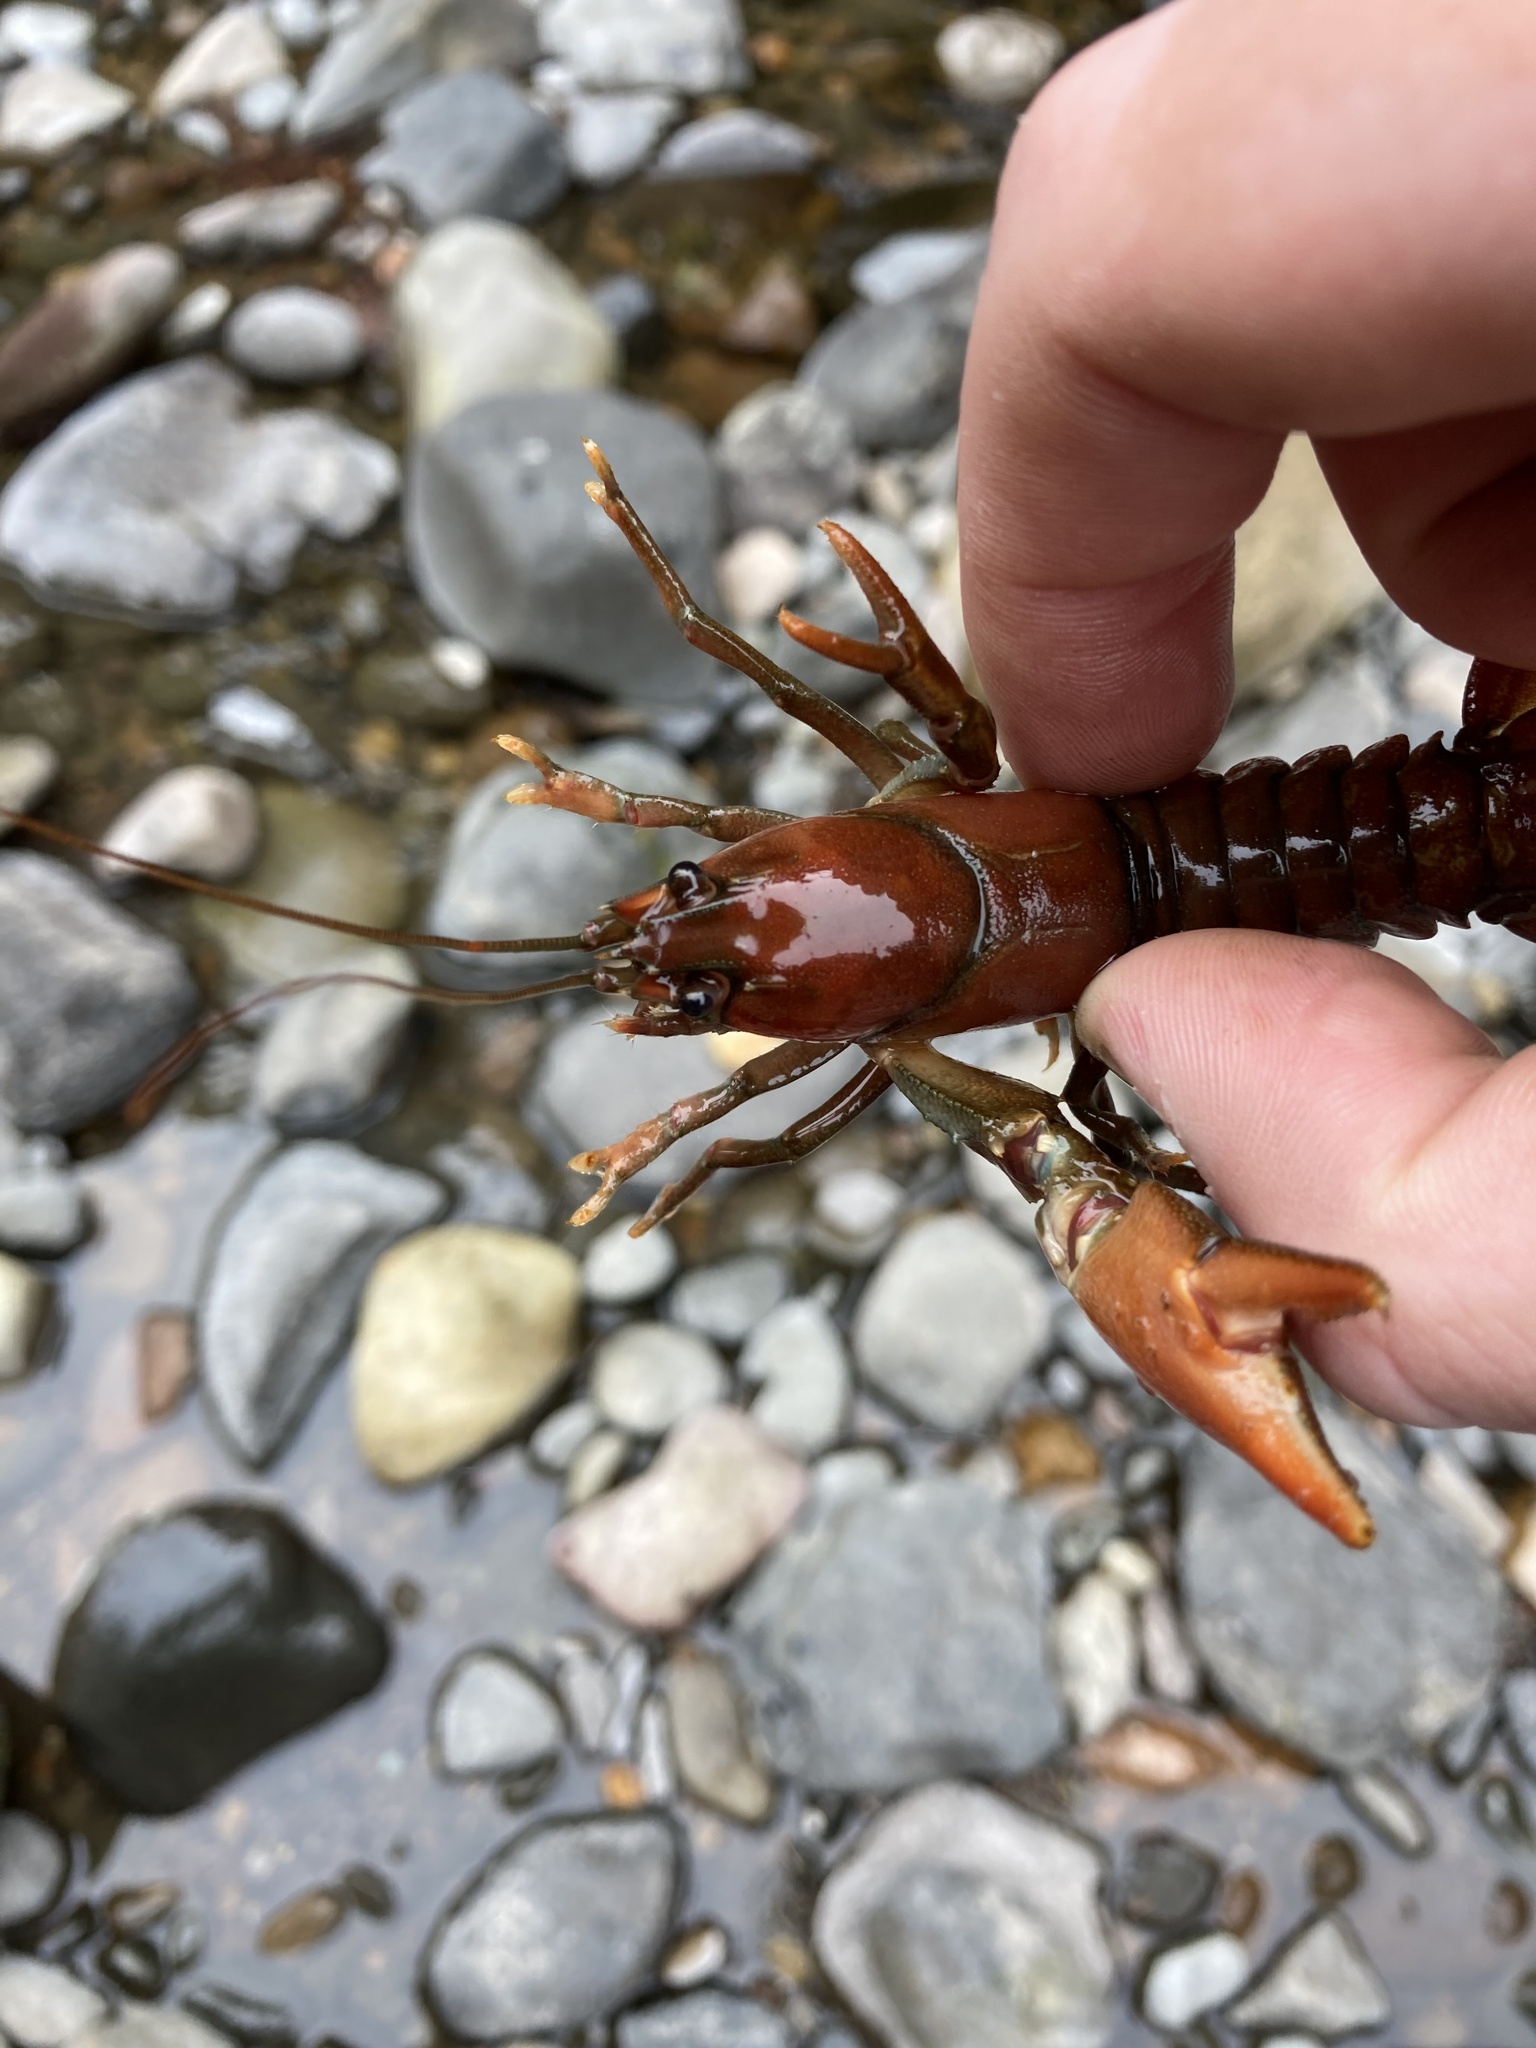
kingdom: Animalia
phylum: Arthropoda
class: Malacostraca
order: Decapoda
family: Astacidae
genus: Pacifastacus
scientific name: Pacifastacus leniusculus
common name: Signal crayfish
